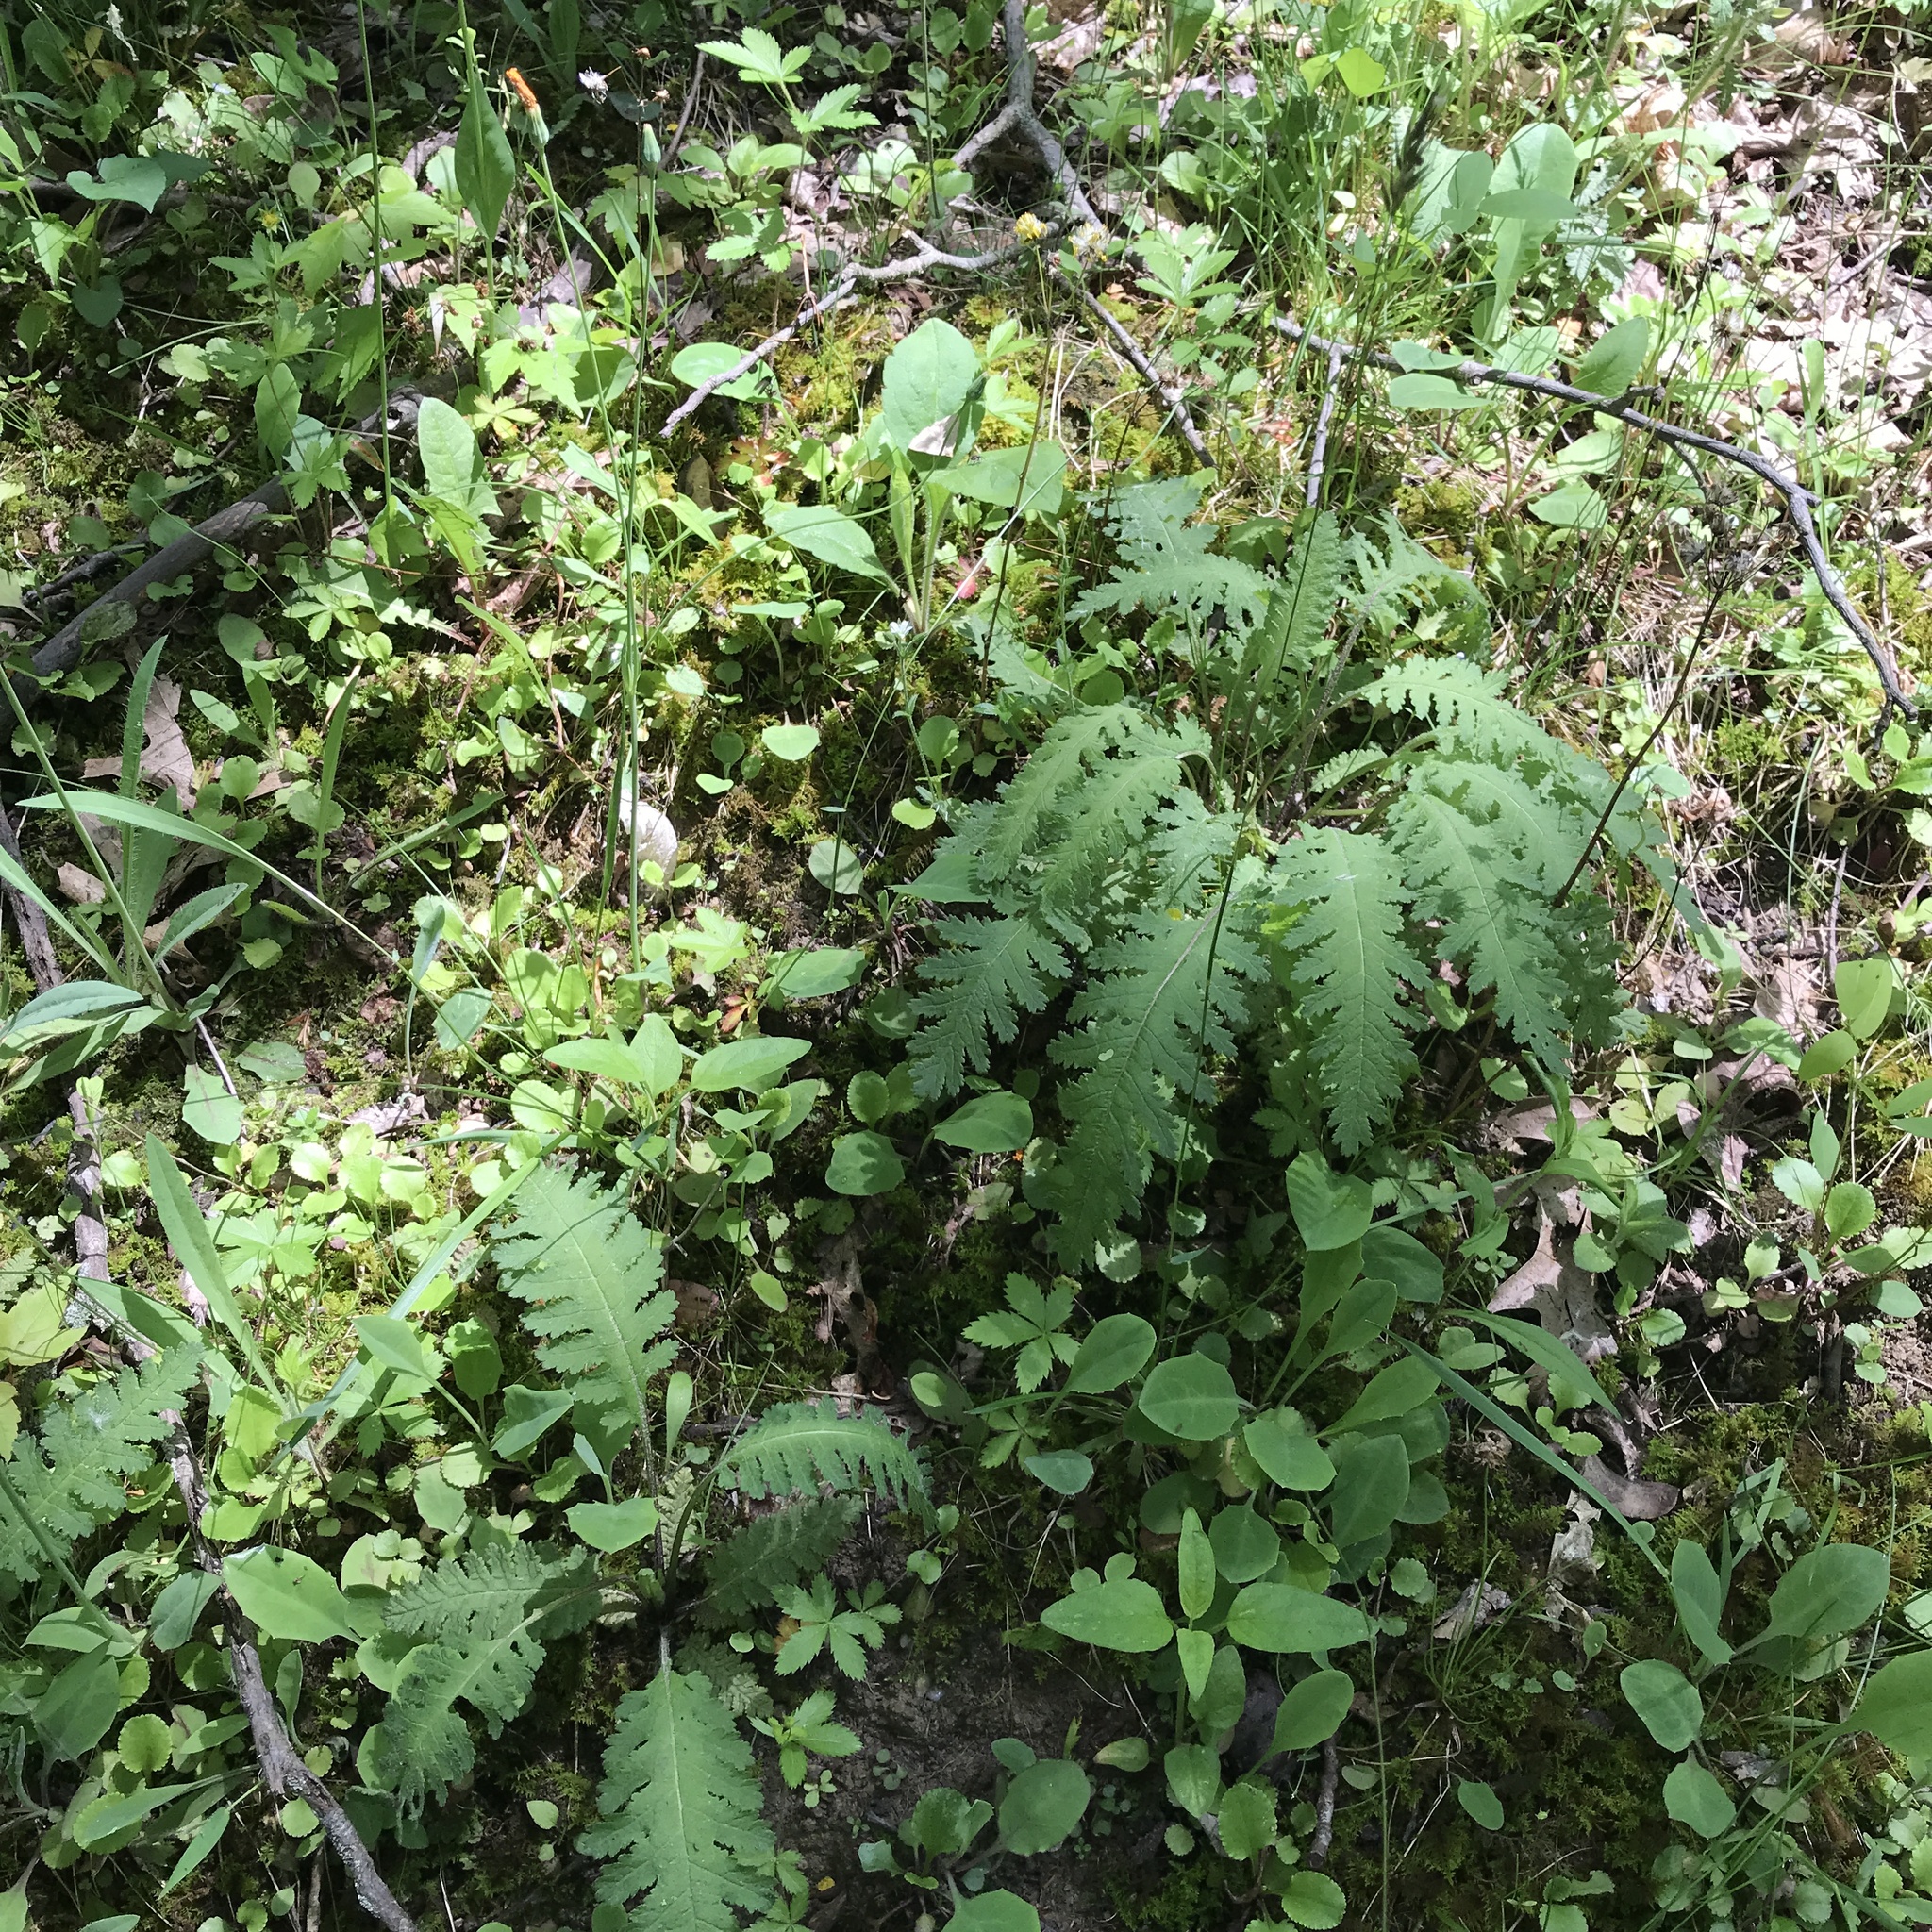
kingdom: Plantae
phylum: Tracheophyta
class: Magnoliopsida
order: Lamiales
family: Orobanchaceae
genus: Pedicularis
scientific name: Pedicularis canadensis
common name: Early lousewort
